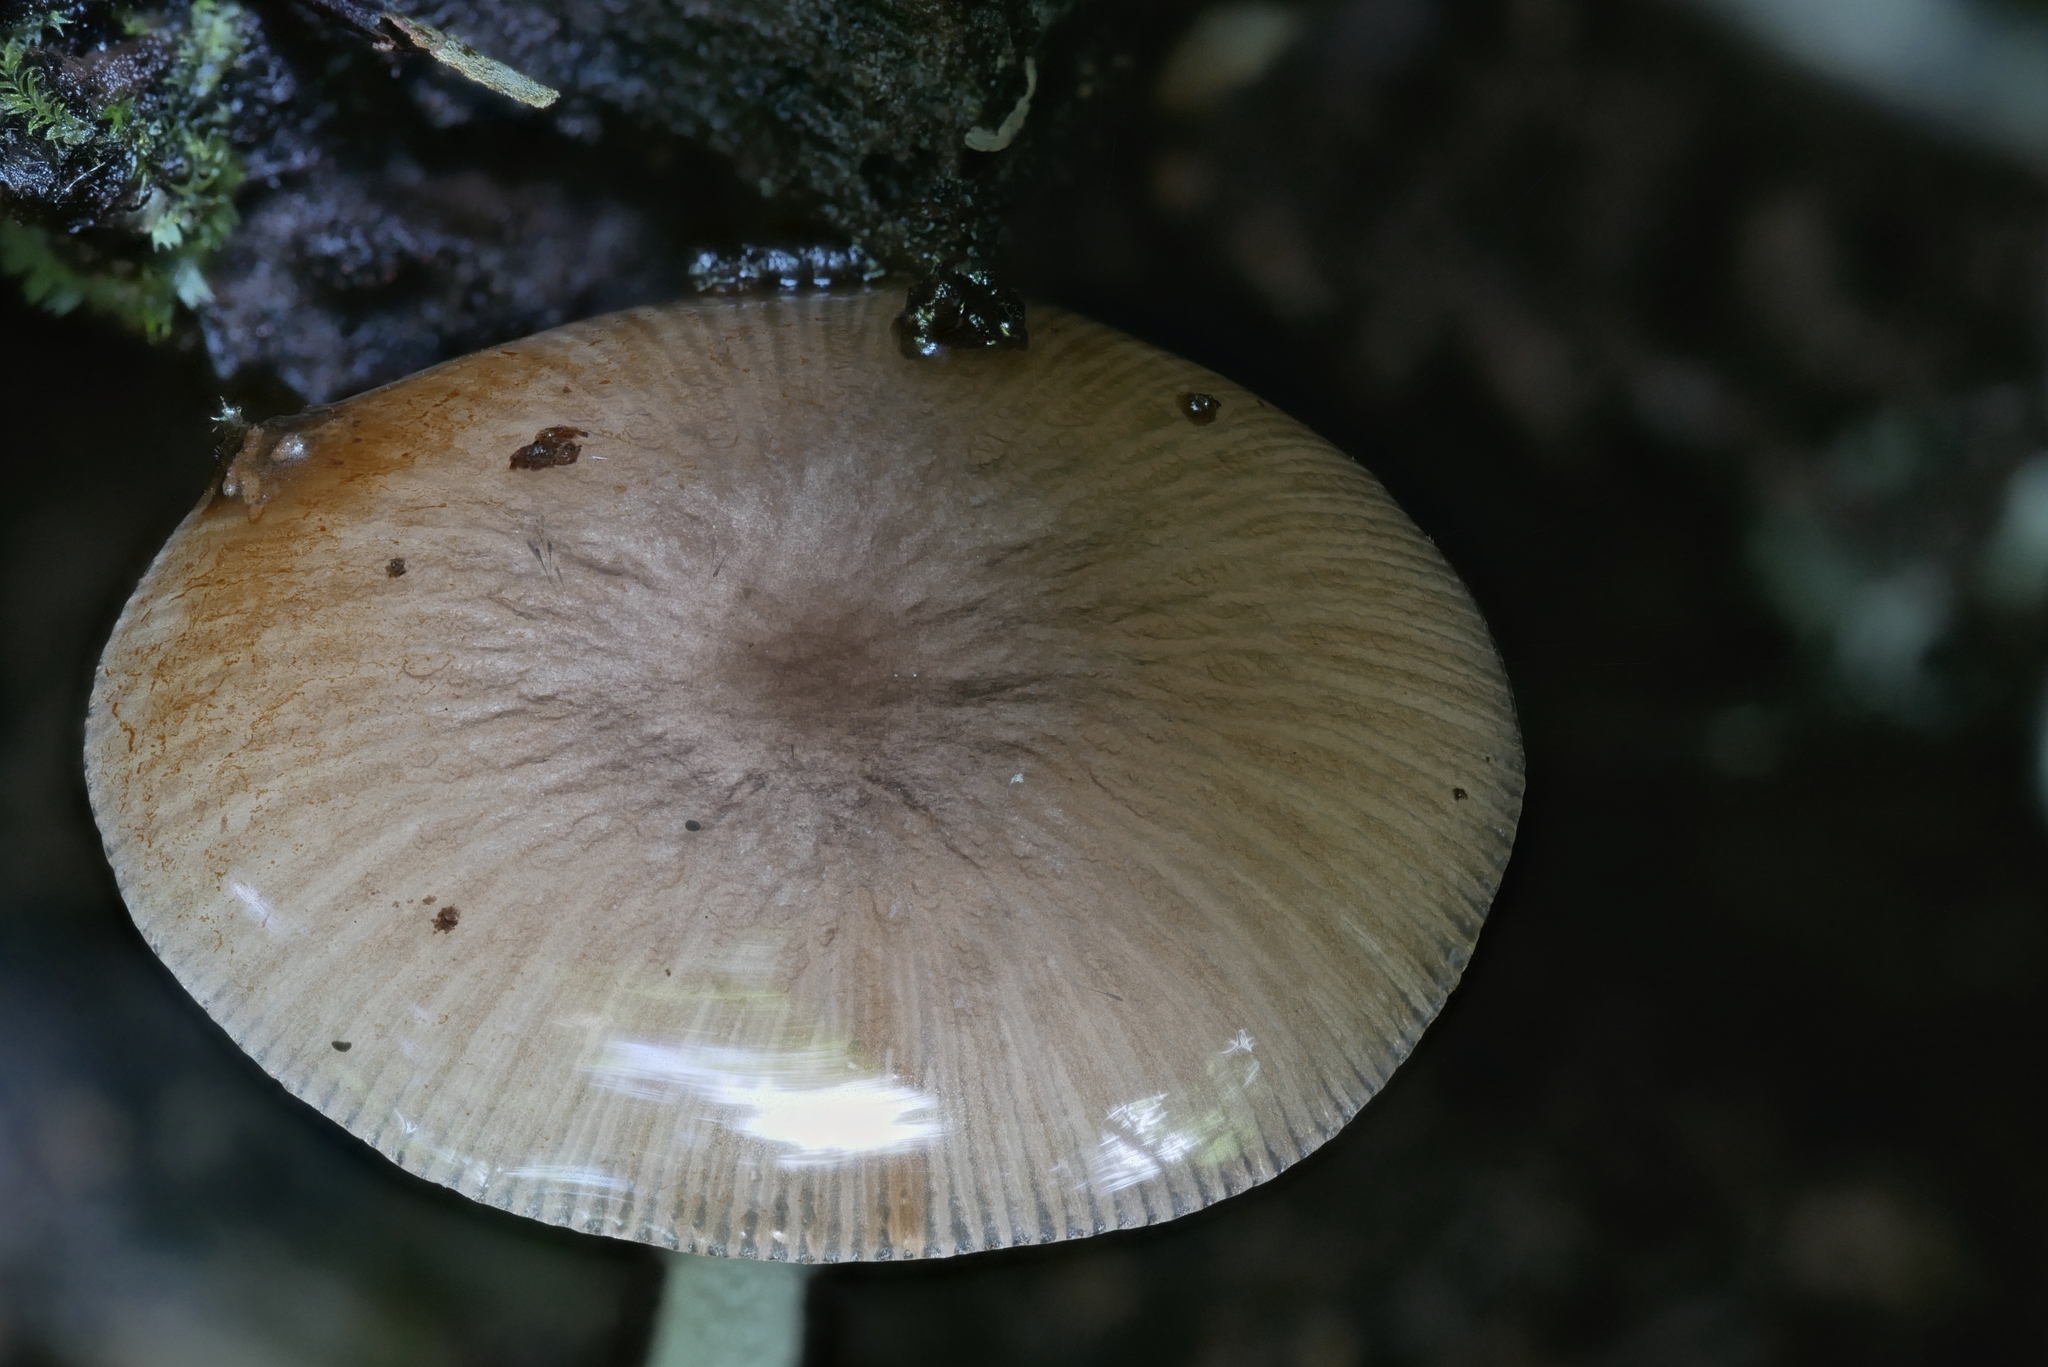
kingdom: Fungi
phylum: Basidiomycota
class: Agaricomycetes
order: Agaricales
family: Bolbitiaceae
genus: Bolbitius
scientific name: Bolbitius reticulatus
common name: Netted fieldcap
